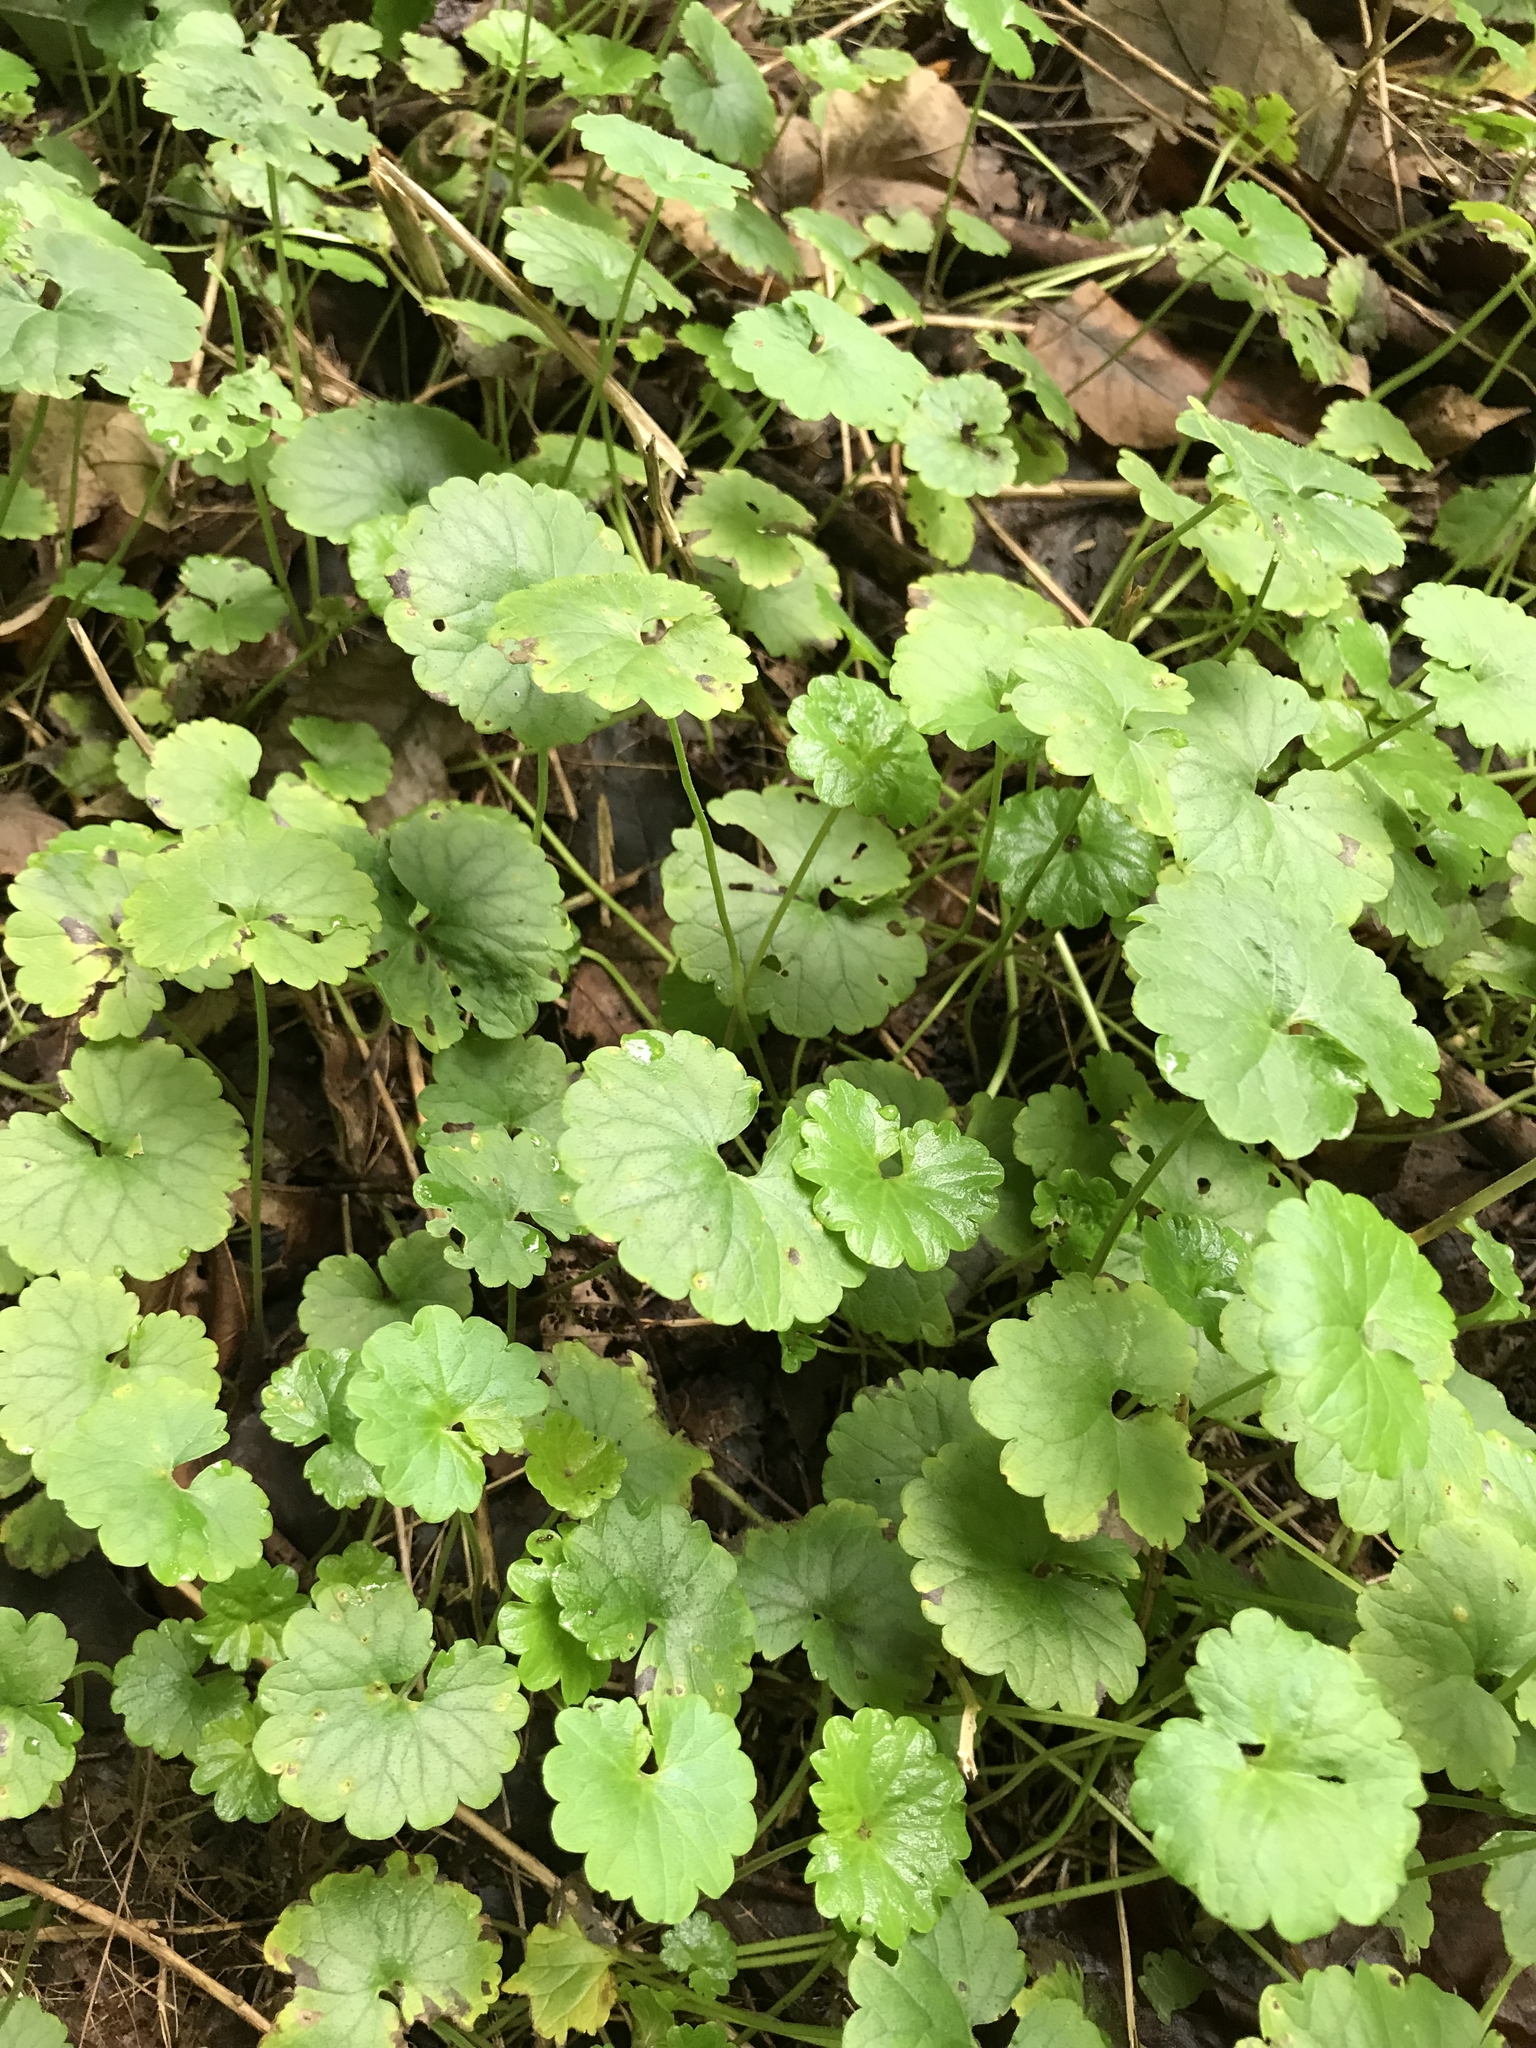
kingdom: Plantae
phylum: Tracheophyta
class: Magnoliopsida
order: Lamiales
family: Lamiaceae
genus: Glechoma
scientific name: Glechoma hederacea
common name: Ground ivy
